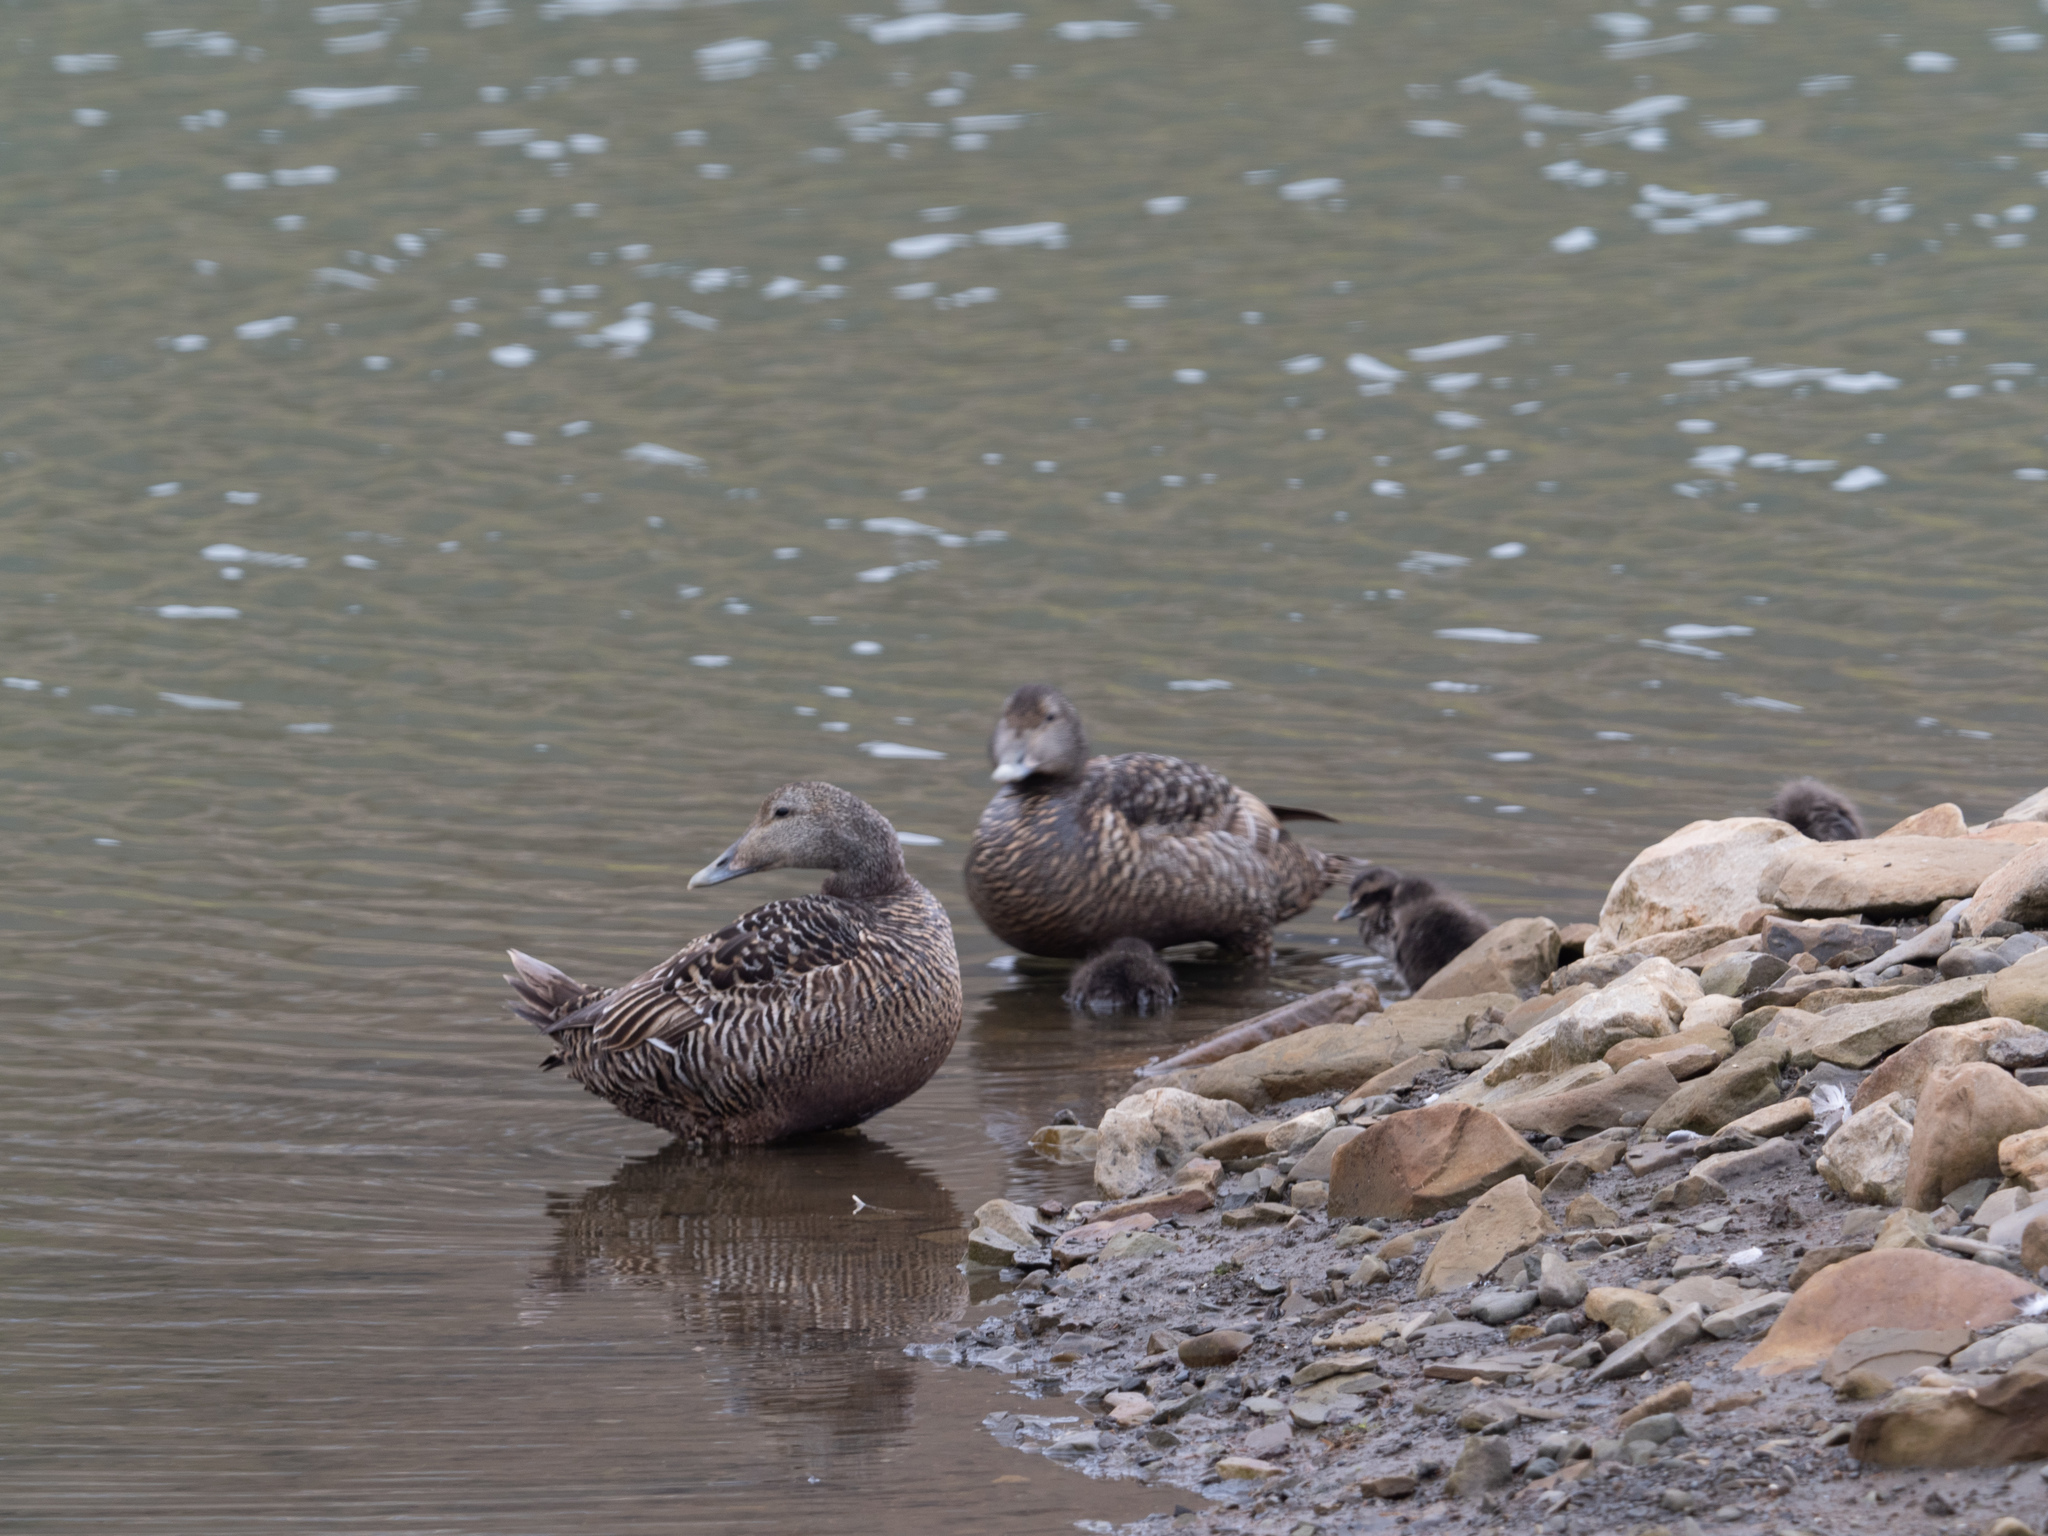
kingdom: Animalia
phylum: Chordata
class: Aves
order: Anseriformes
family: Anatidae
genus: Somateria
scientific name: Somateria mollissima
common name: Common eider
